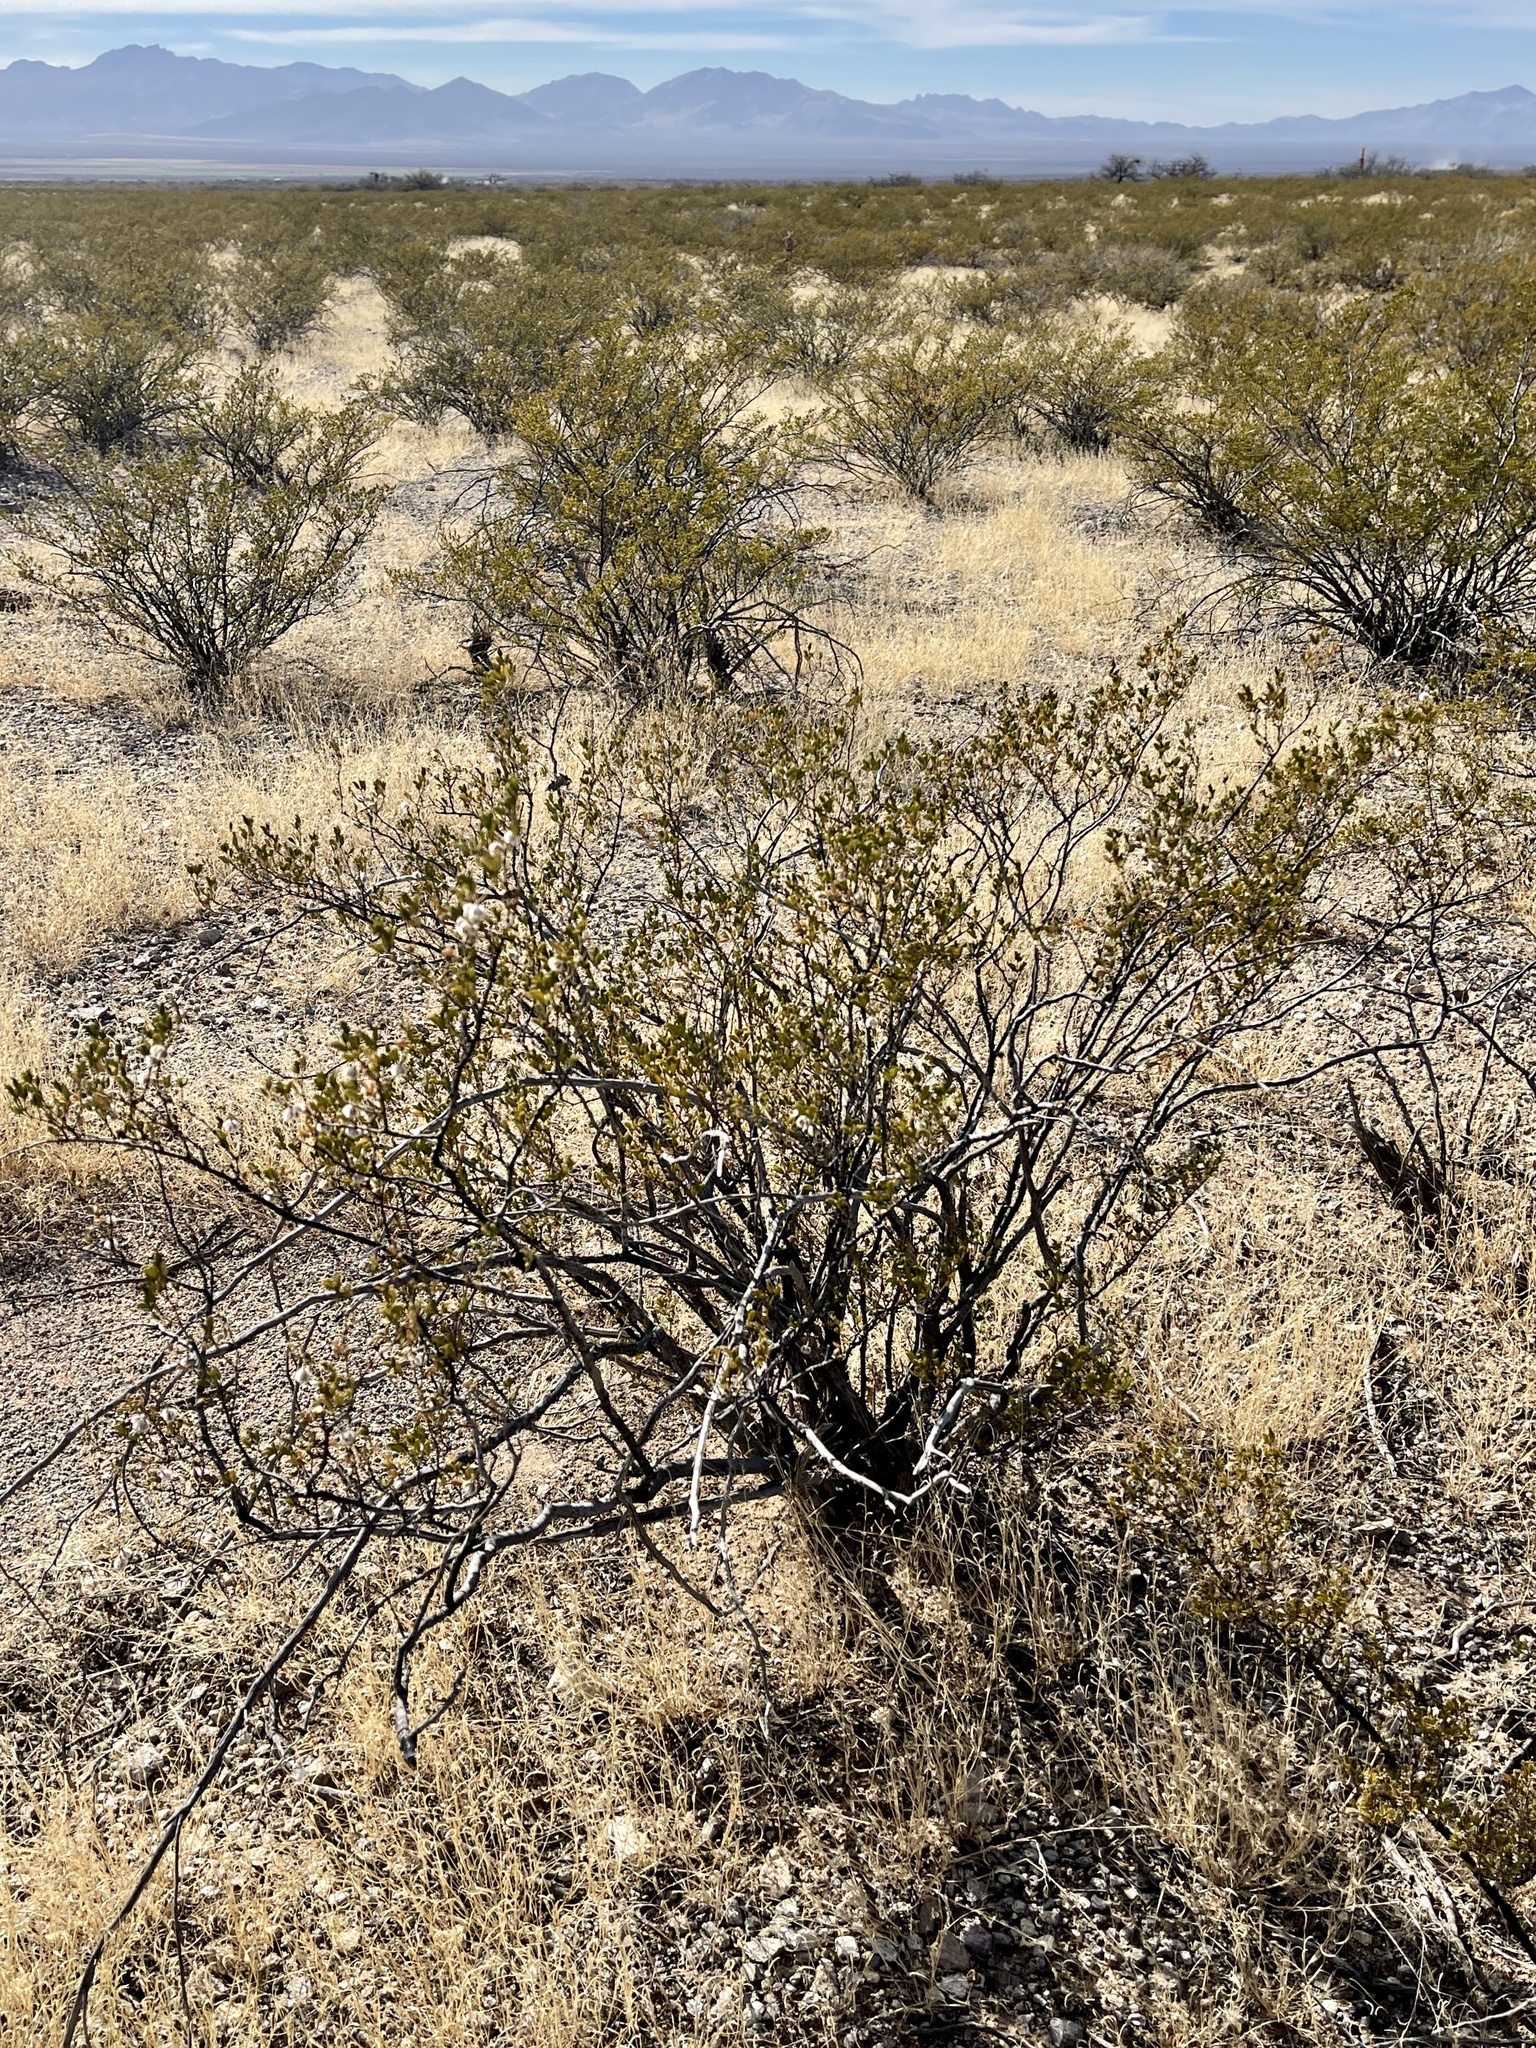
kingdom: Plantae
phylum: Tracheophyta
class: Magnoliopsida
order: Zygophyllales
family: Zygophyllaceae
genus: Larrea
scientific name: Larrea tridentata
